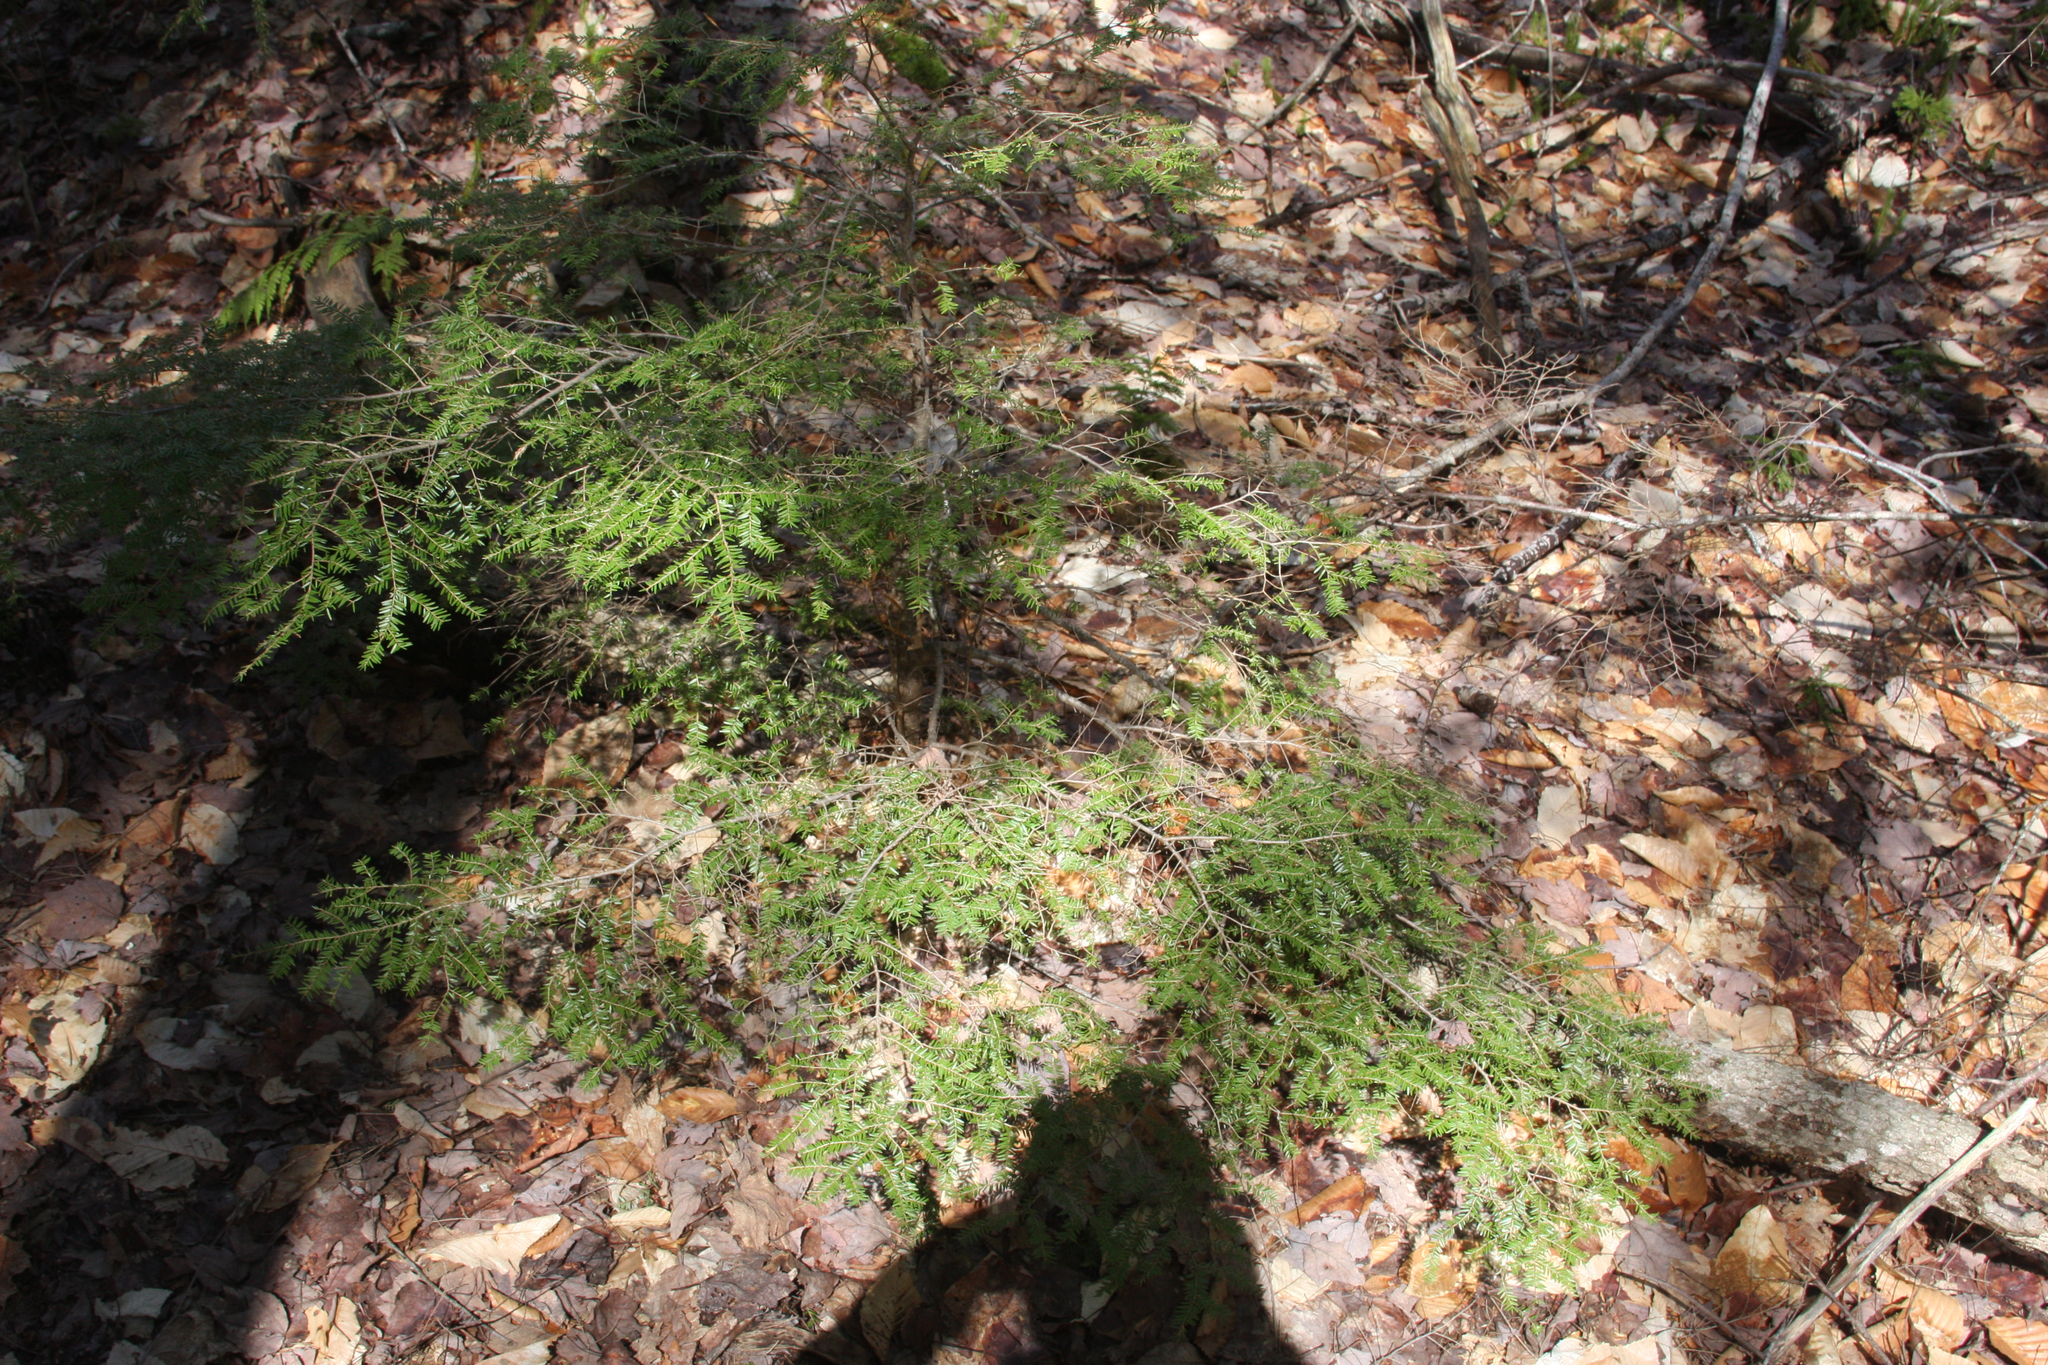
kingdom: Plantae
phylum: Tracheophyta
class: Pinopsida
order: Pinales
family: Pinaceae
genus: Tsuga
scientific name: Tsuga canadensis
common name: Eastern hemlock
